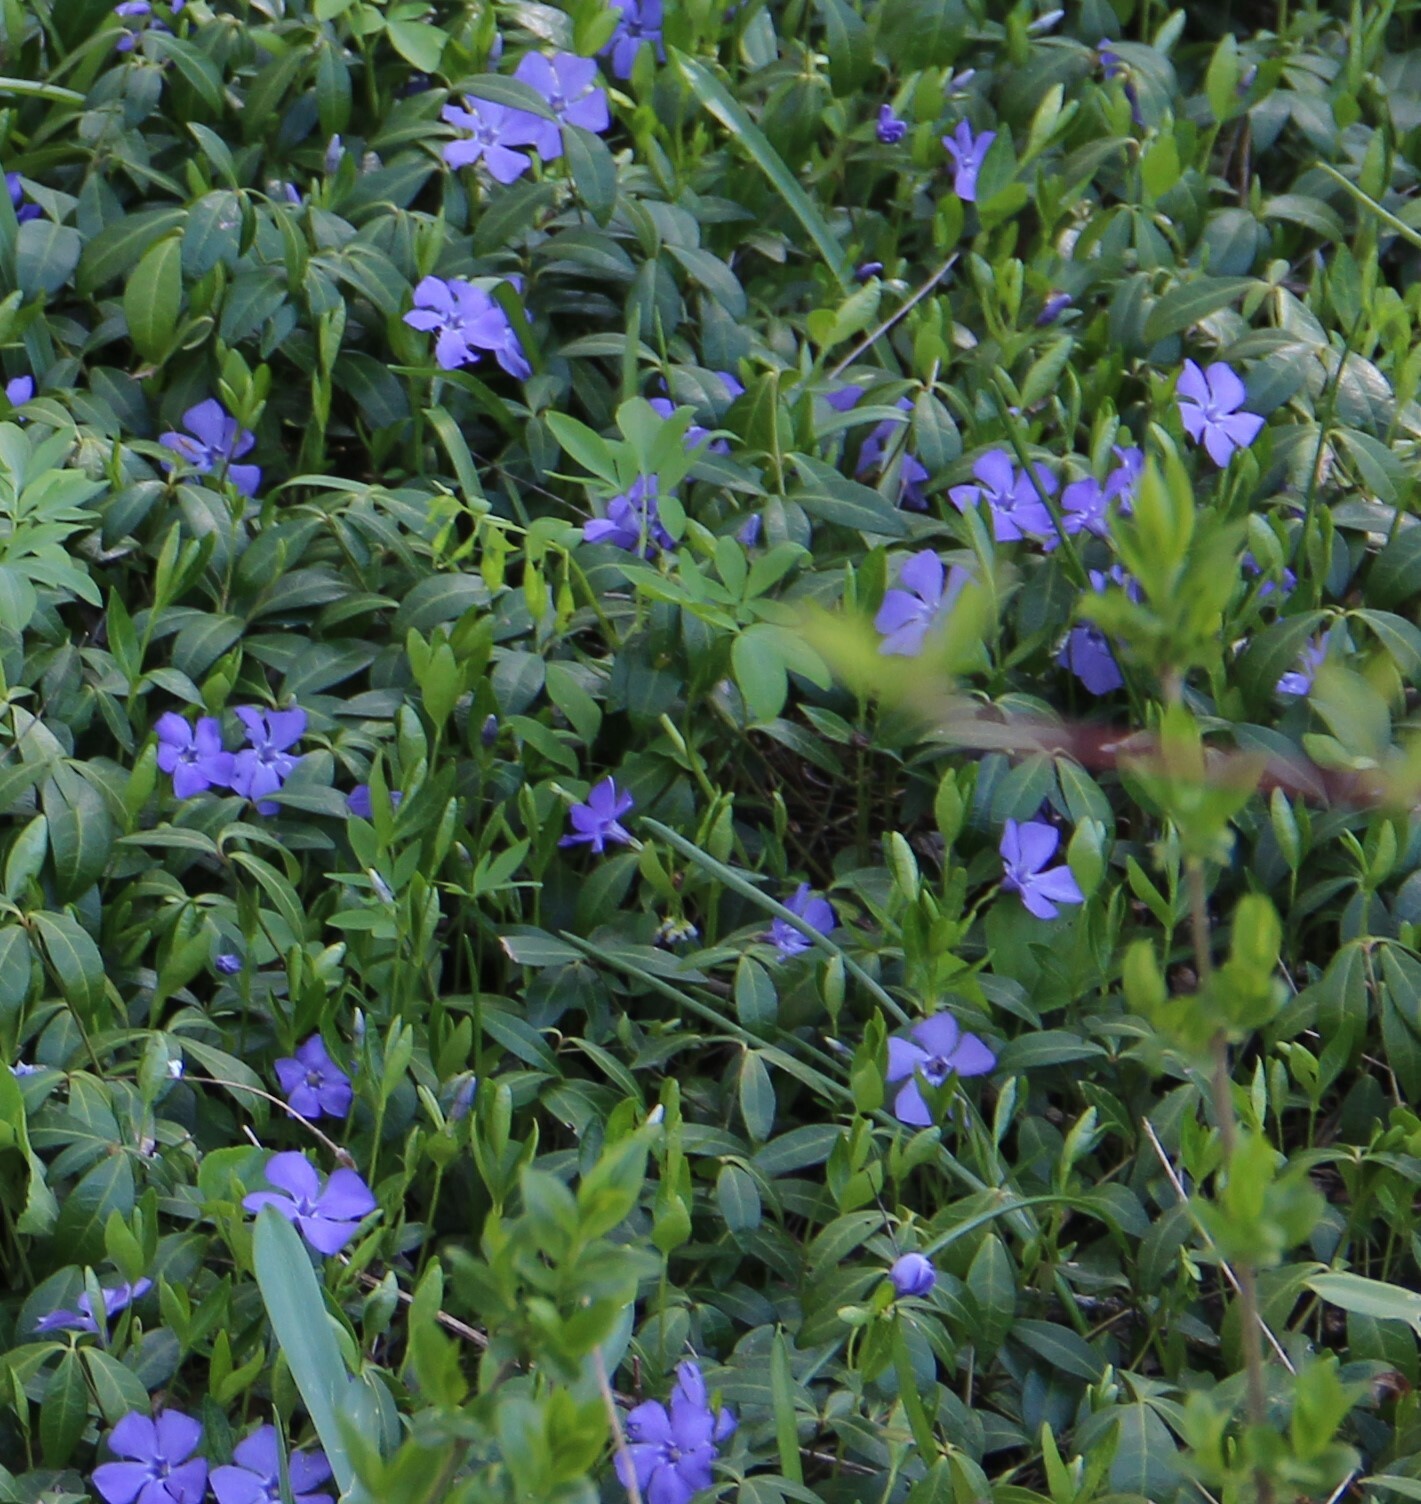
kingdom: Plantae
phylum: Tracheophyta
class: Magnoliopsida
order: Gentianales
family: Apocynaceae
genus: Vinca
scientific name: Vinca minor
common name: Lesser periwinkle
